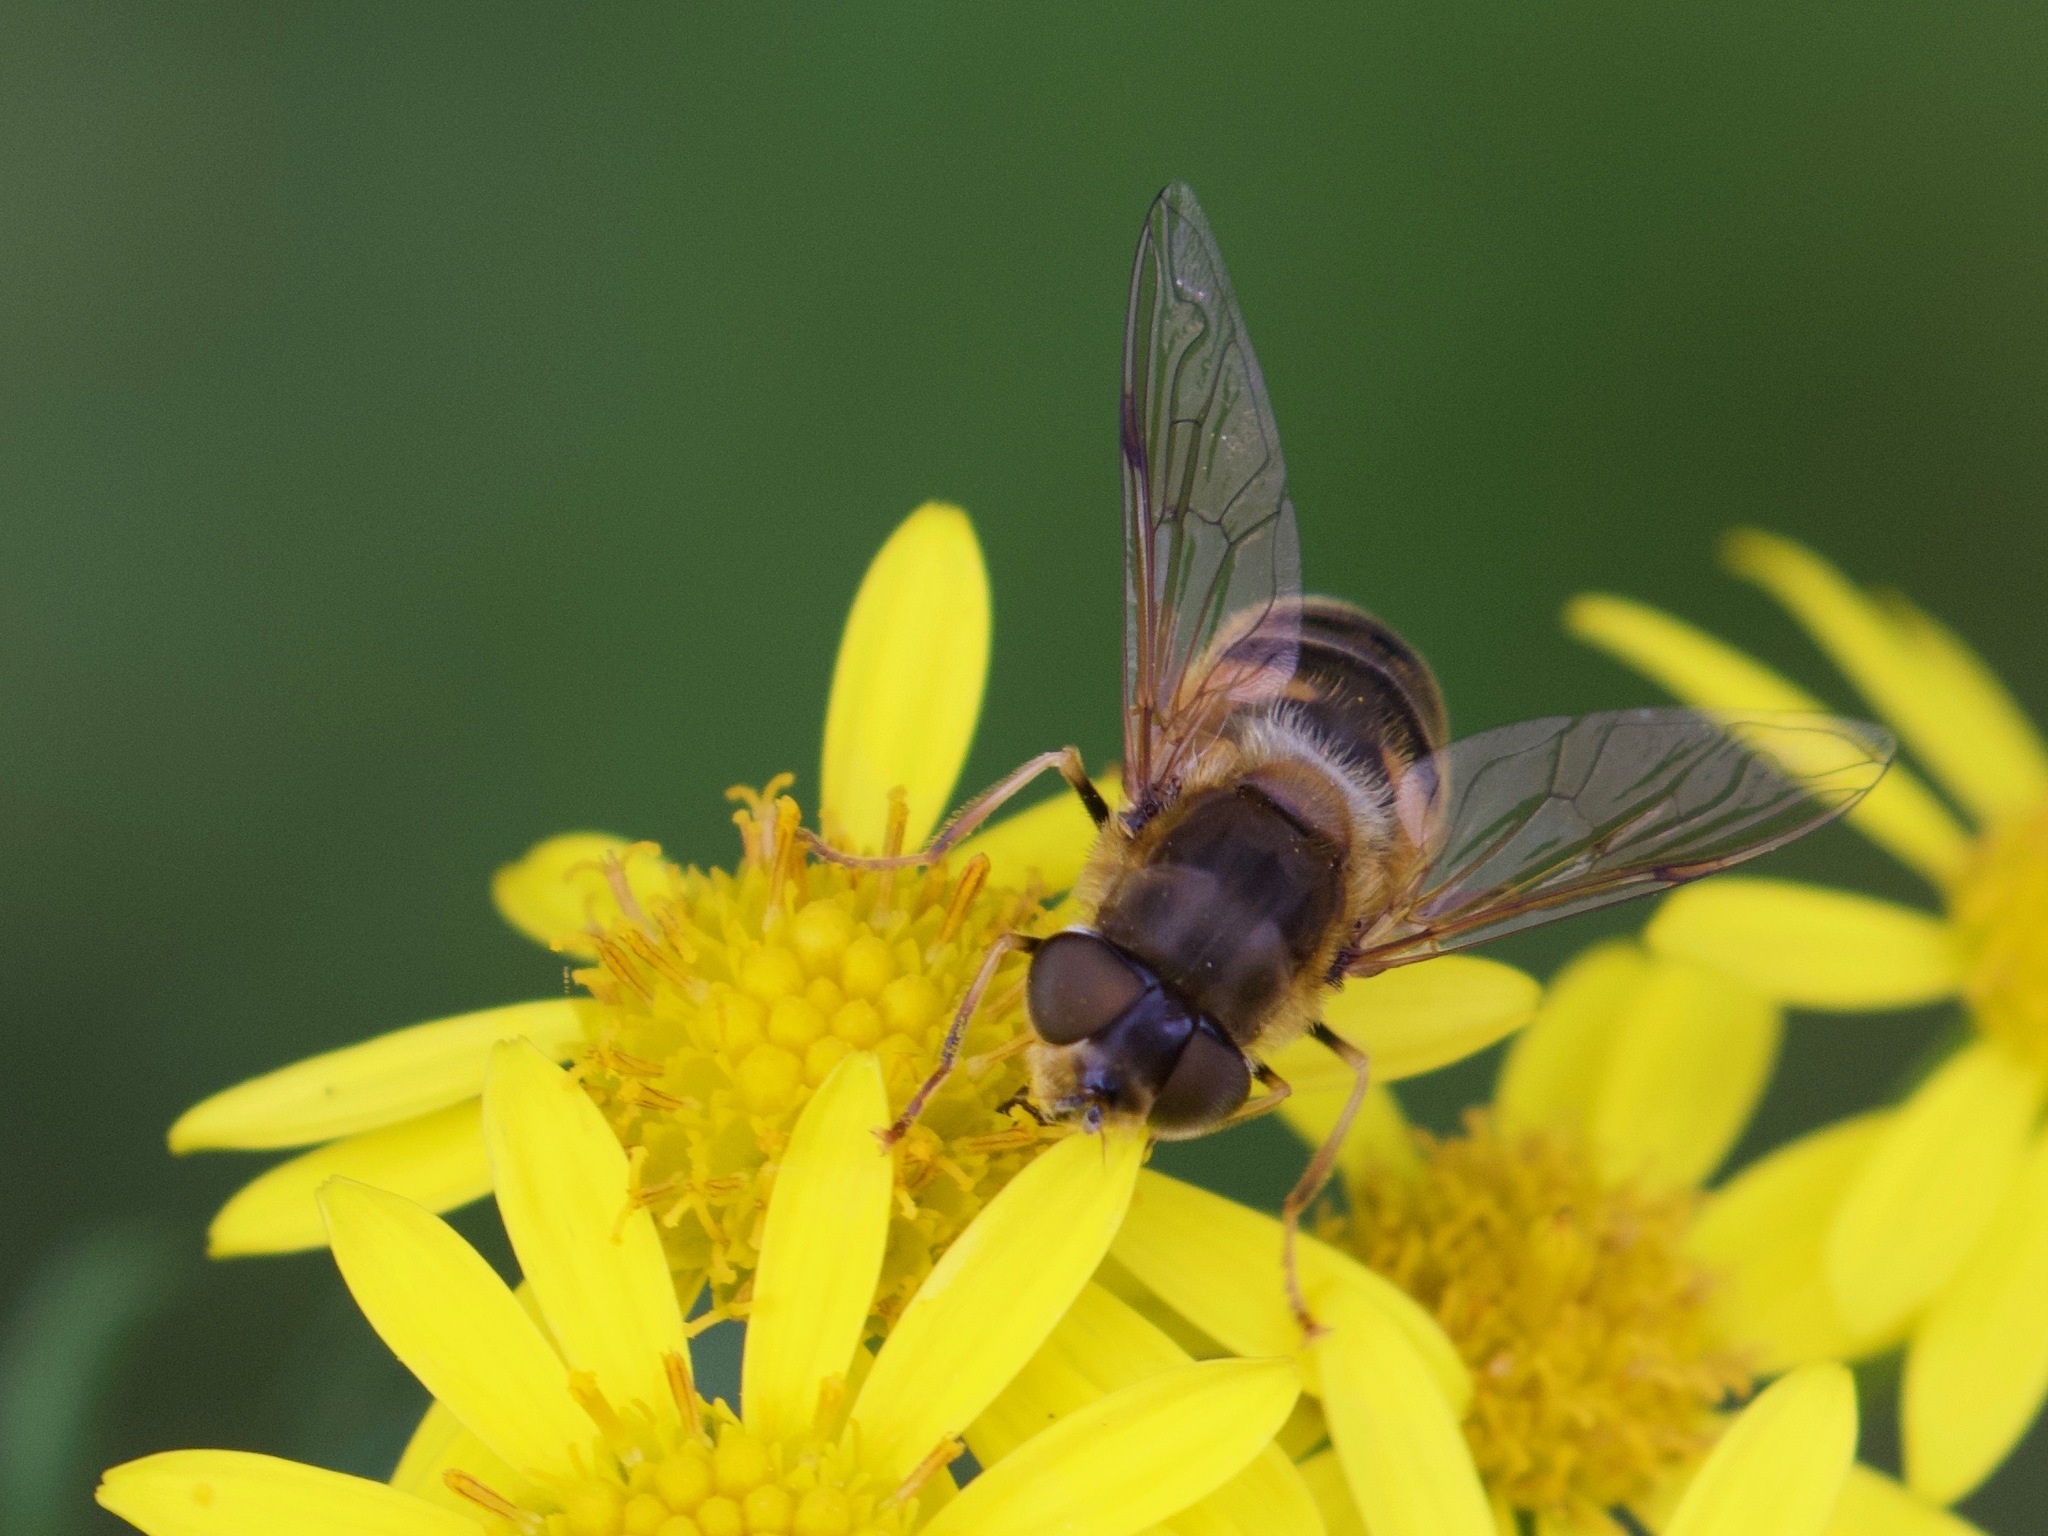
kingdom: Animalia
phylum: Arthropoda
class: Insecta
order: Diptera
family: Syrphidae
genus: Eristalis
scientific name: Eristalis pertinax
